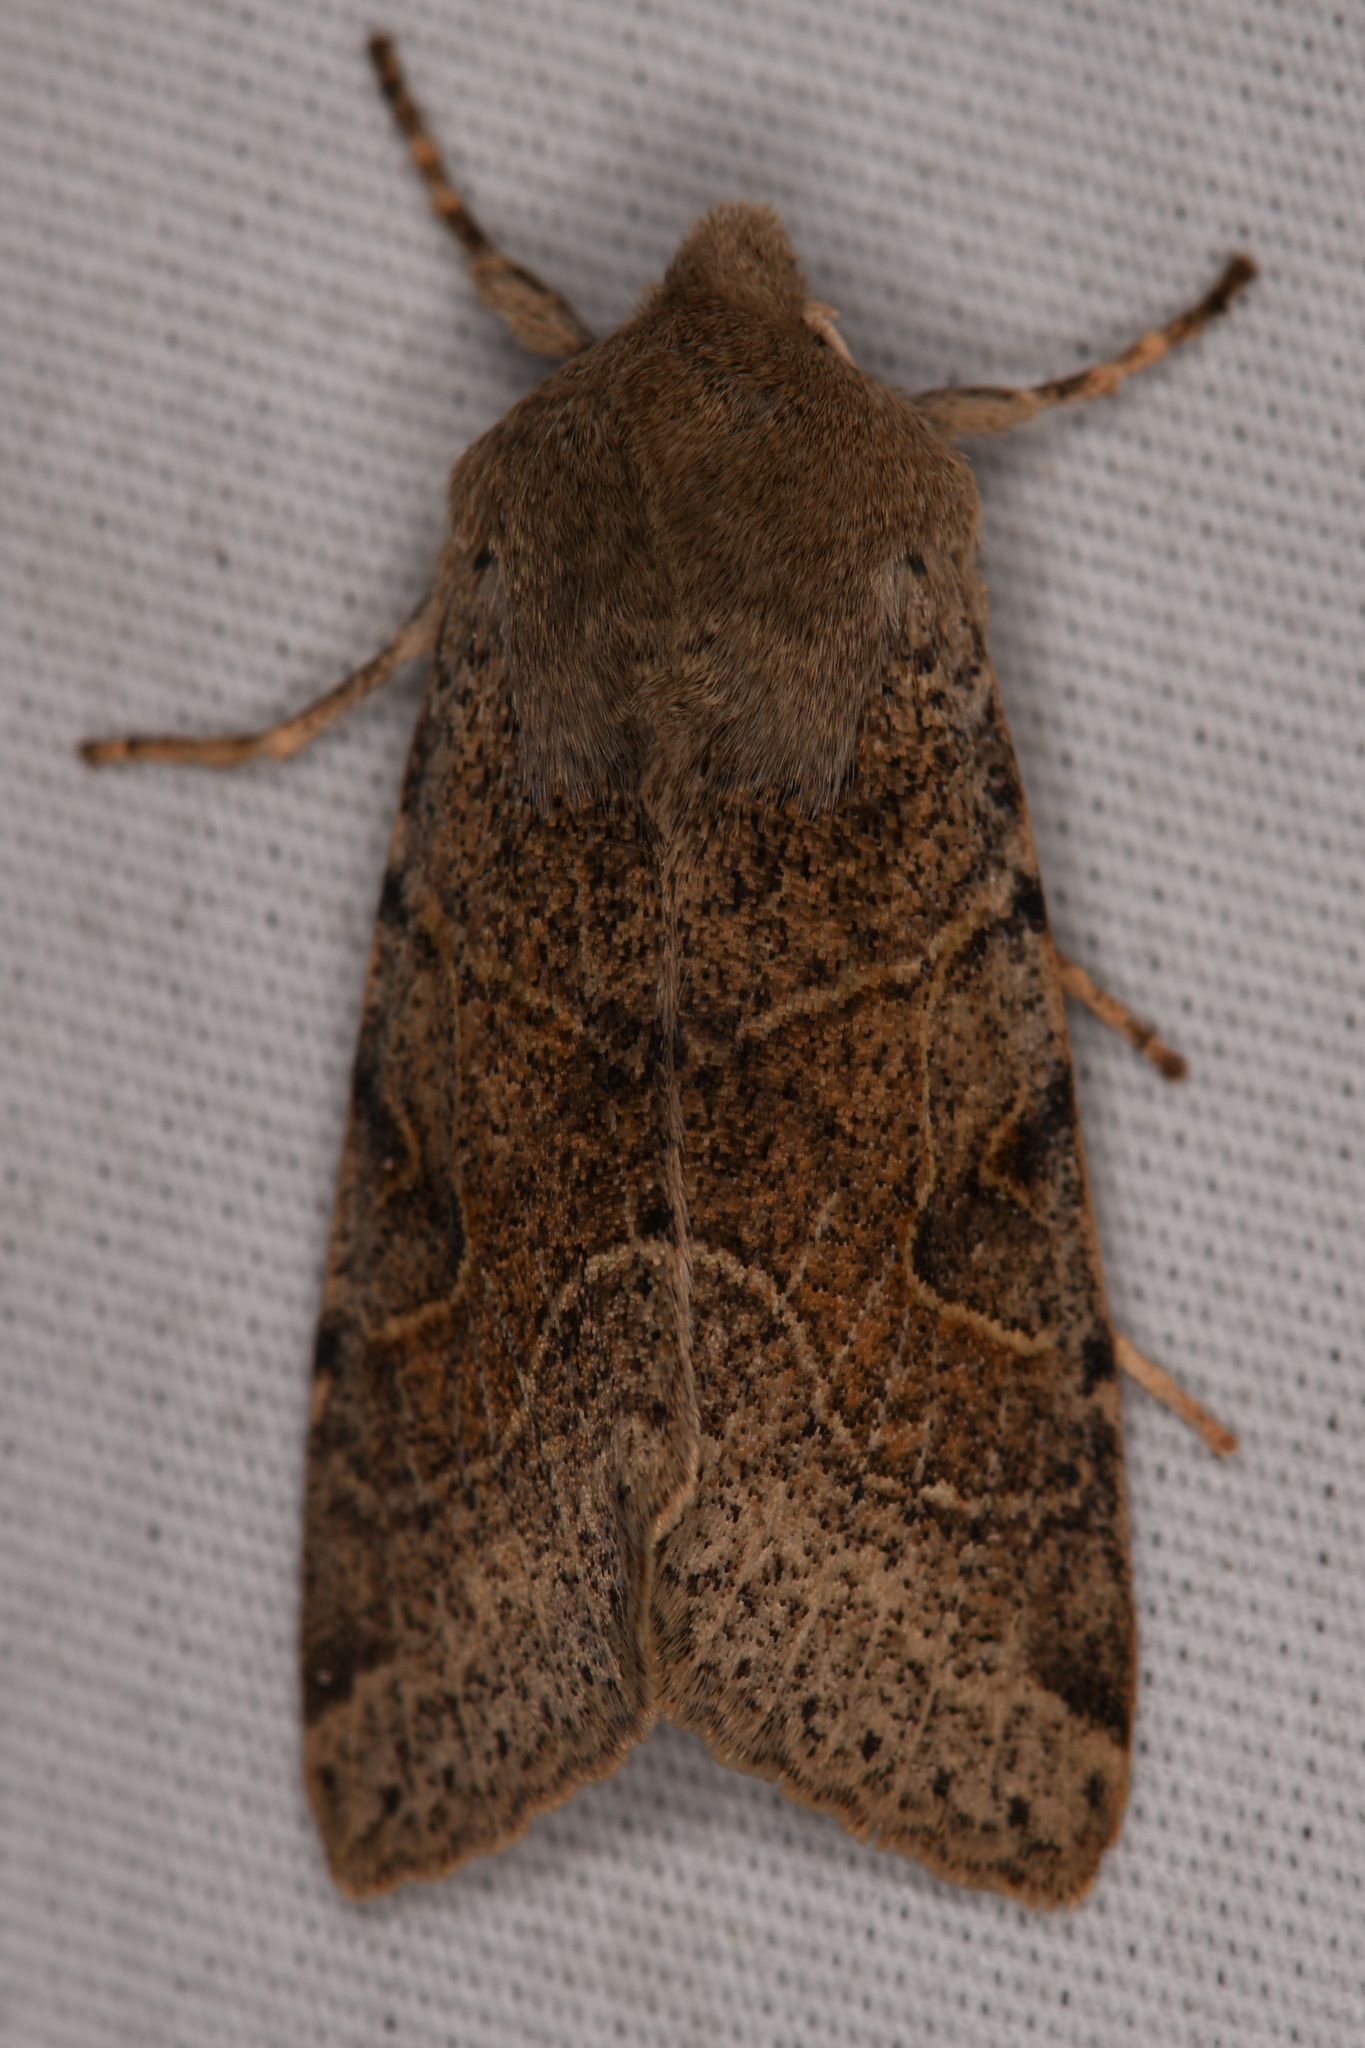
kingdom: Animalia
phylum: Arthropoda
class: Insecta
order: Lepidoptera
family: Noctuidae
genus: Orthosia
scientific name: Orthosia behrensiana
